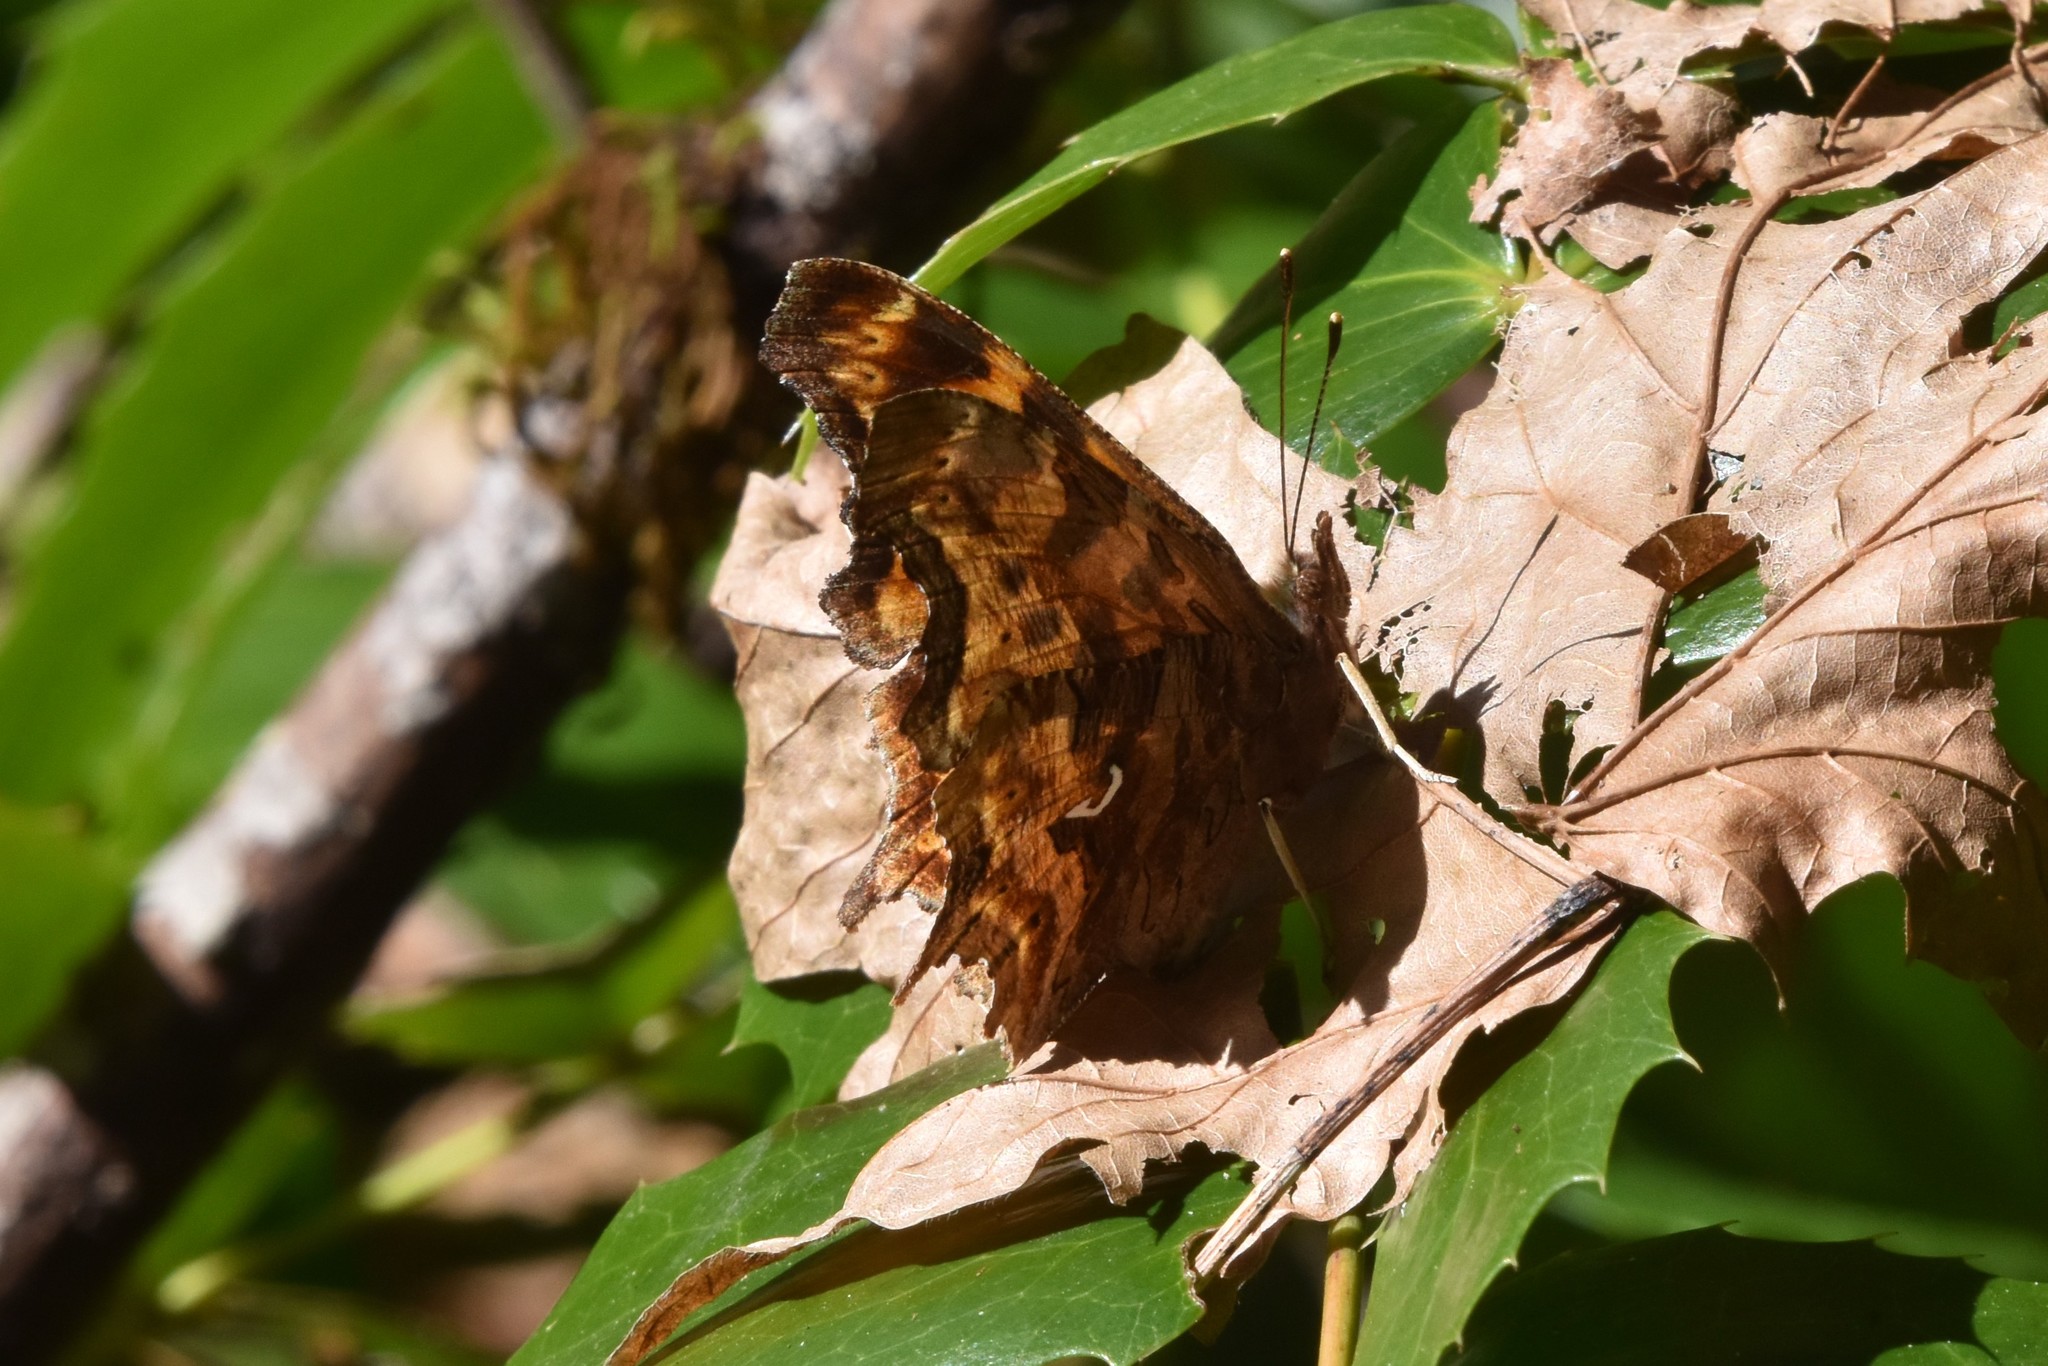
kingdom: Animalia
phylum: Arthropoda
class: Insecta
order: Lepidoptera
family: Nymphalidae
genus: Polygonia
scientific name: Polygonia satyrus
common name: Satyr angle wing
